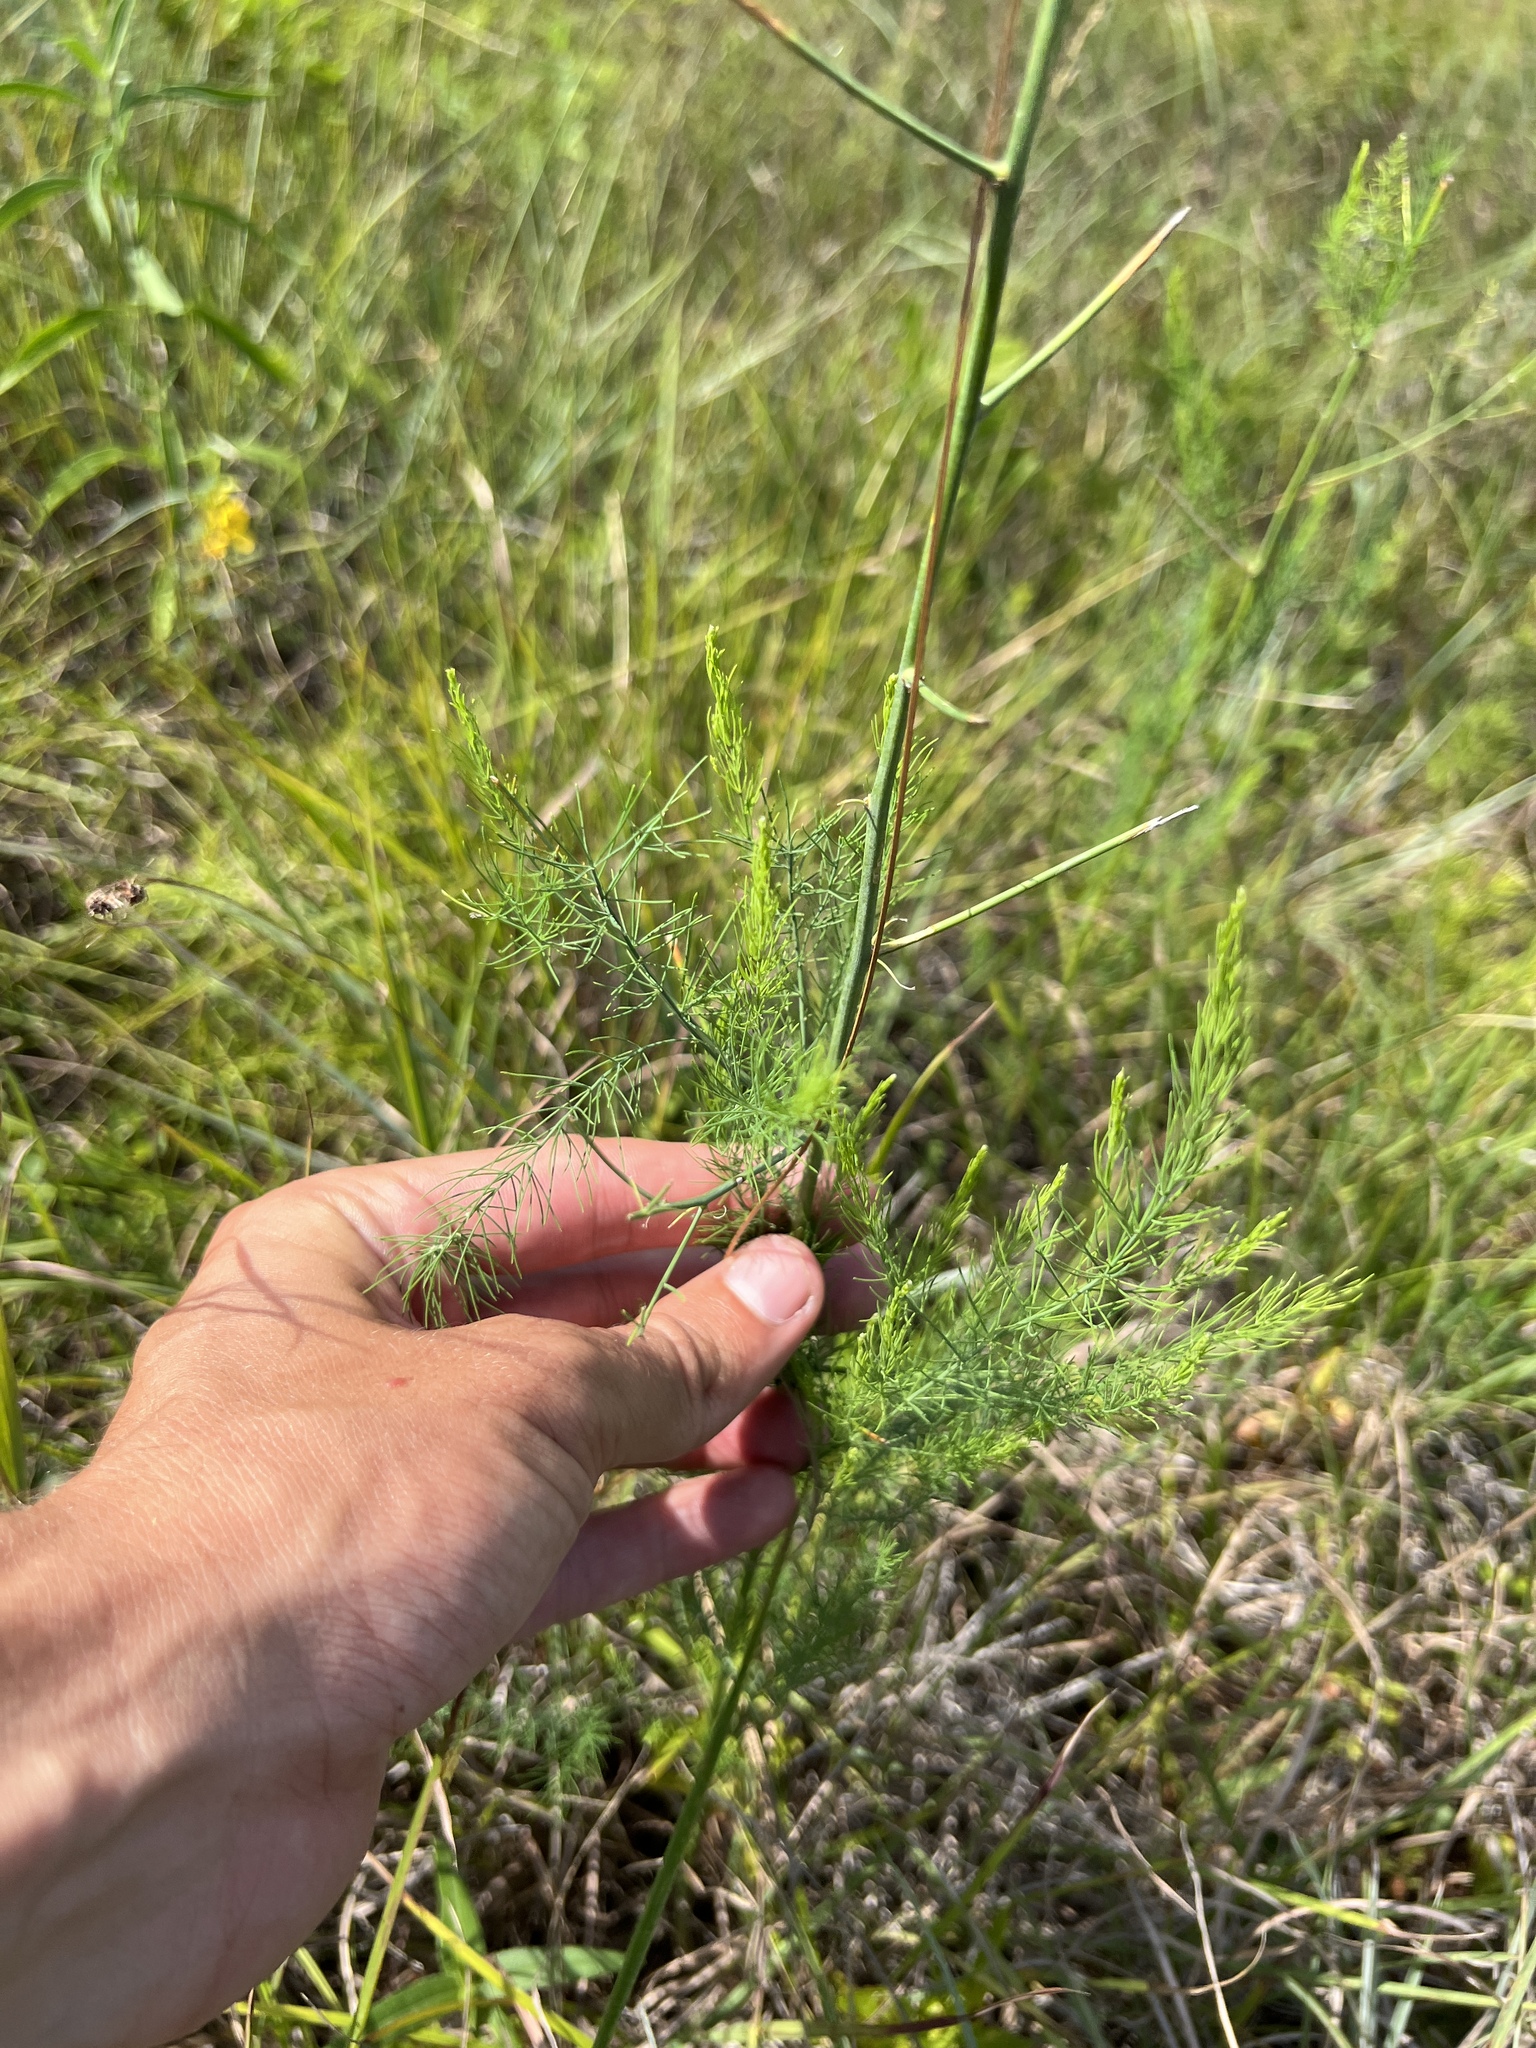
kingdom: Plantae
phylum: Tracheophyta
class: Liliopsida
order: Asparagales
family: Asparagaceae
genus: Asparagus
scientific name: Asparagus officinalis
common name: Garden asparagus
